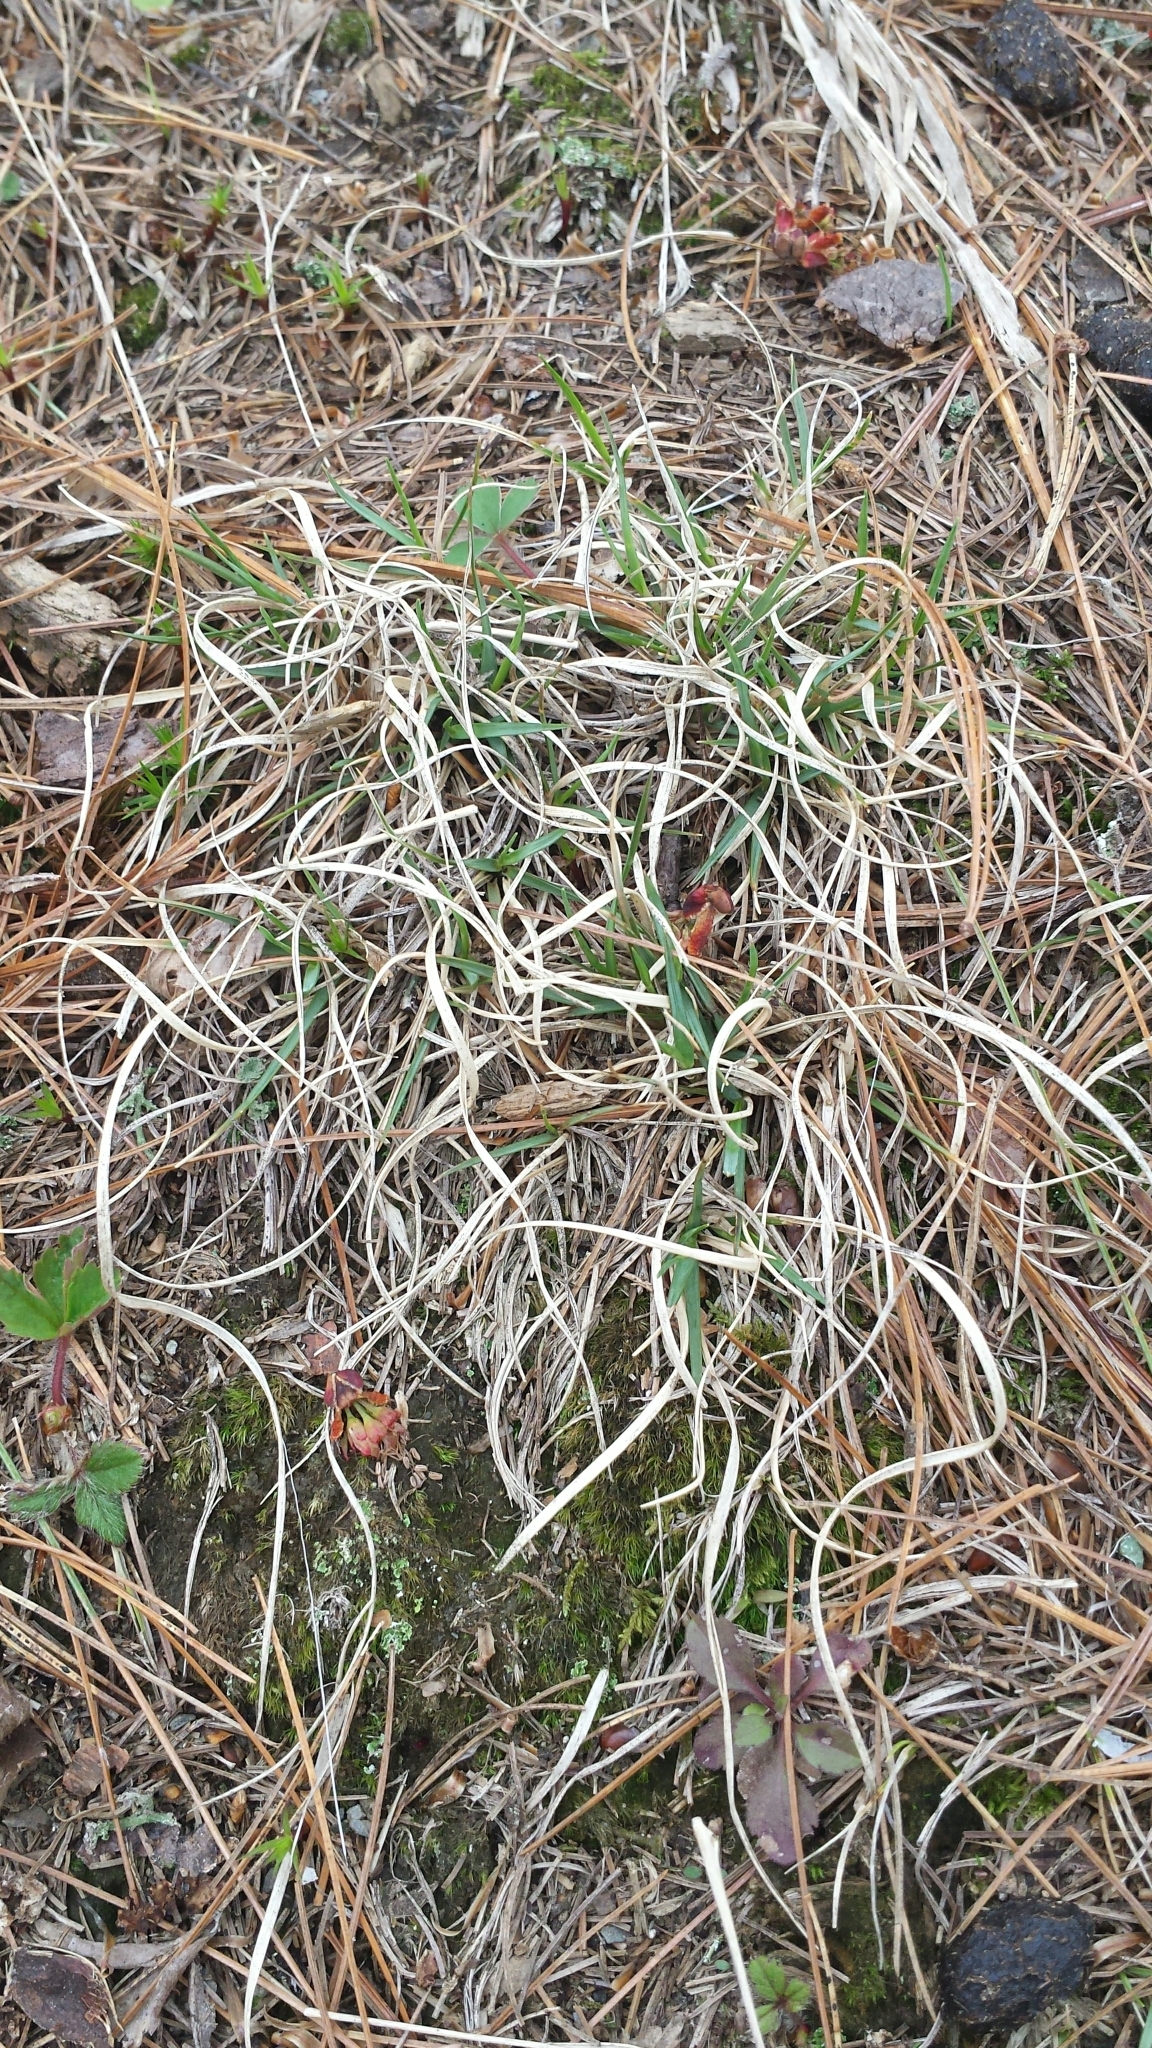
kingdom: Plantae
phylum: Tracheophyta
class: Liliopsida
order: Poales
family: Poaceae
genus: Danthonia
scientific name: Danthonia spicata
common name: Common wild oatgrass
